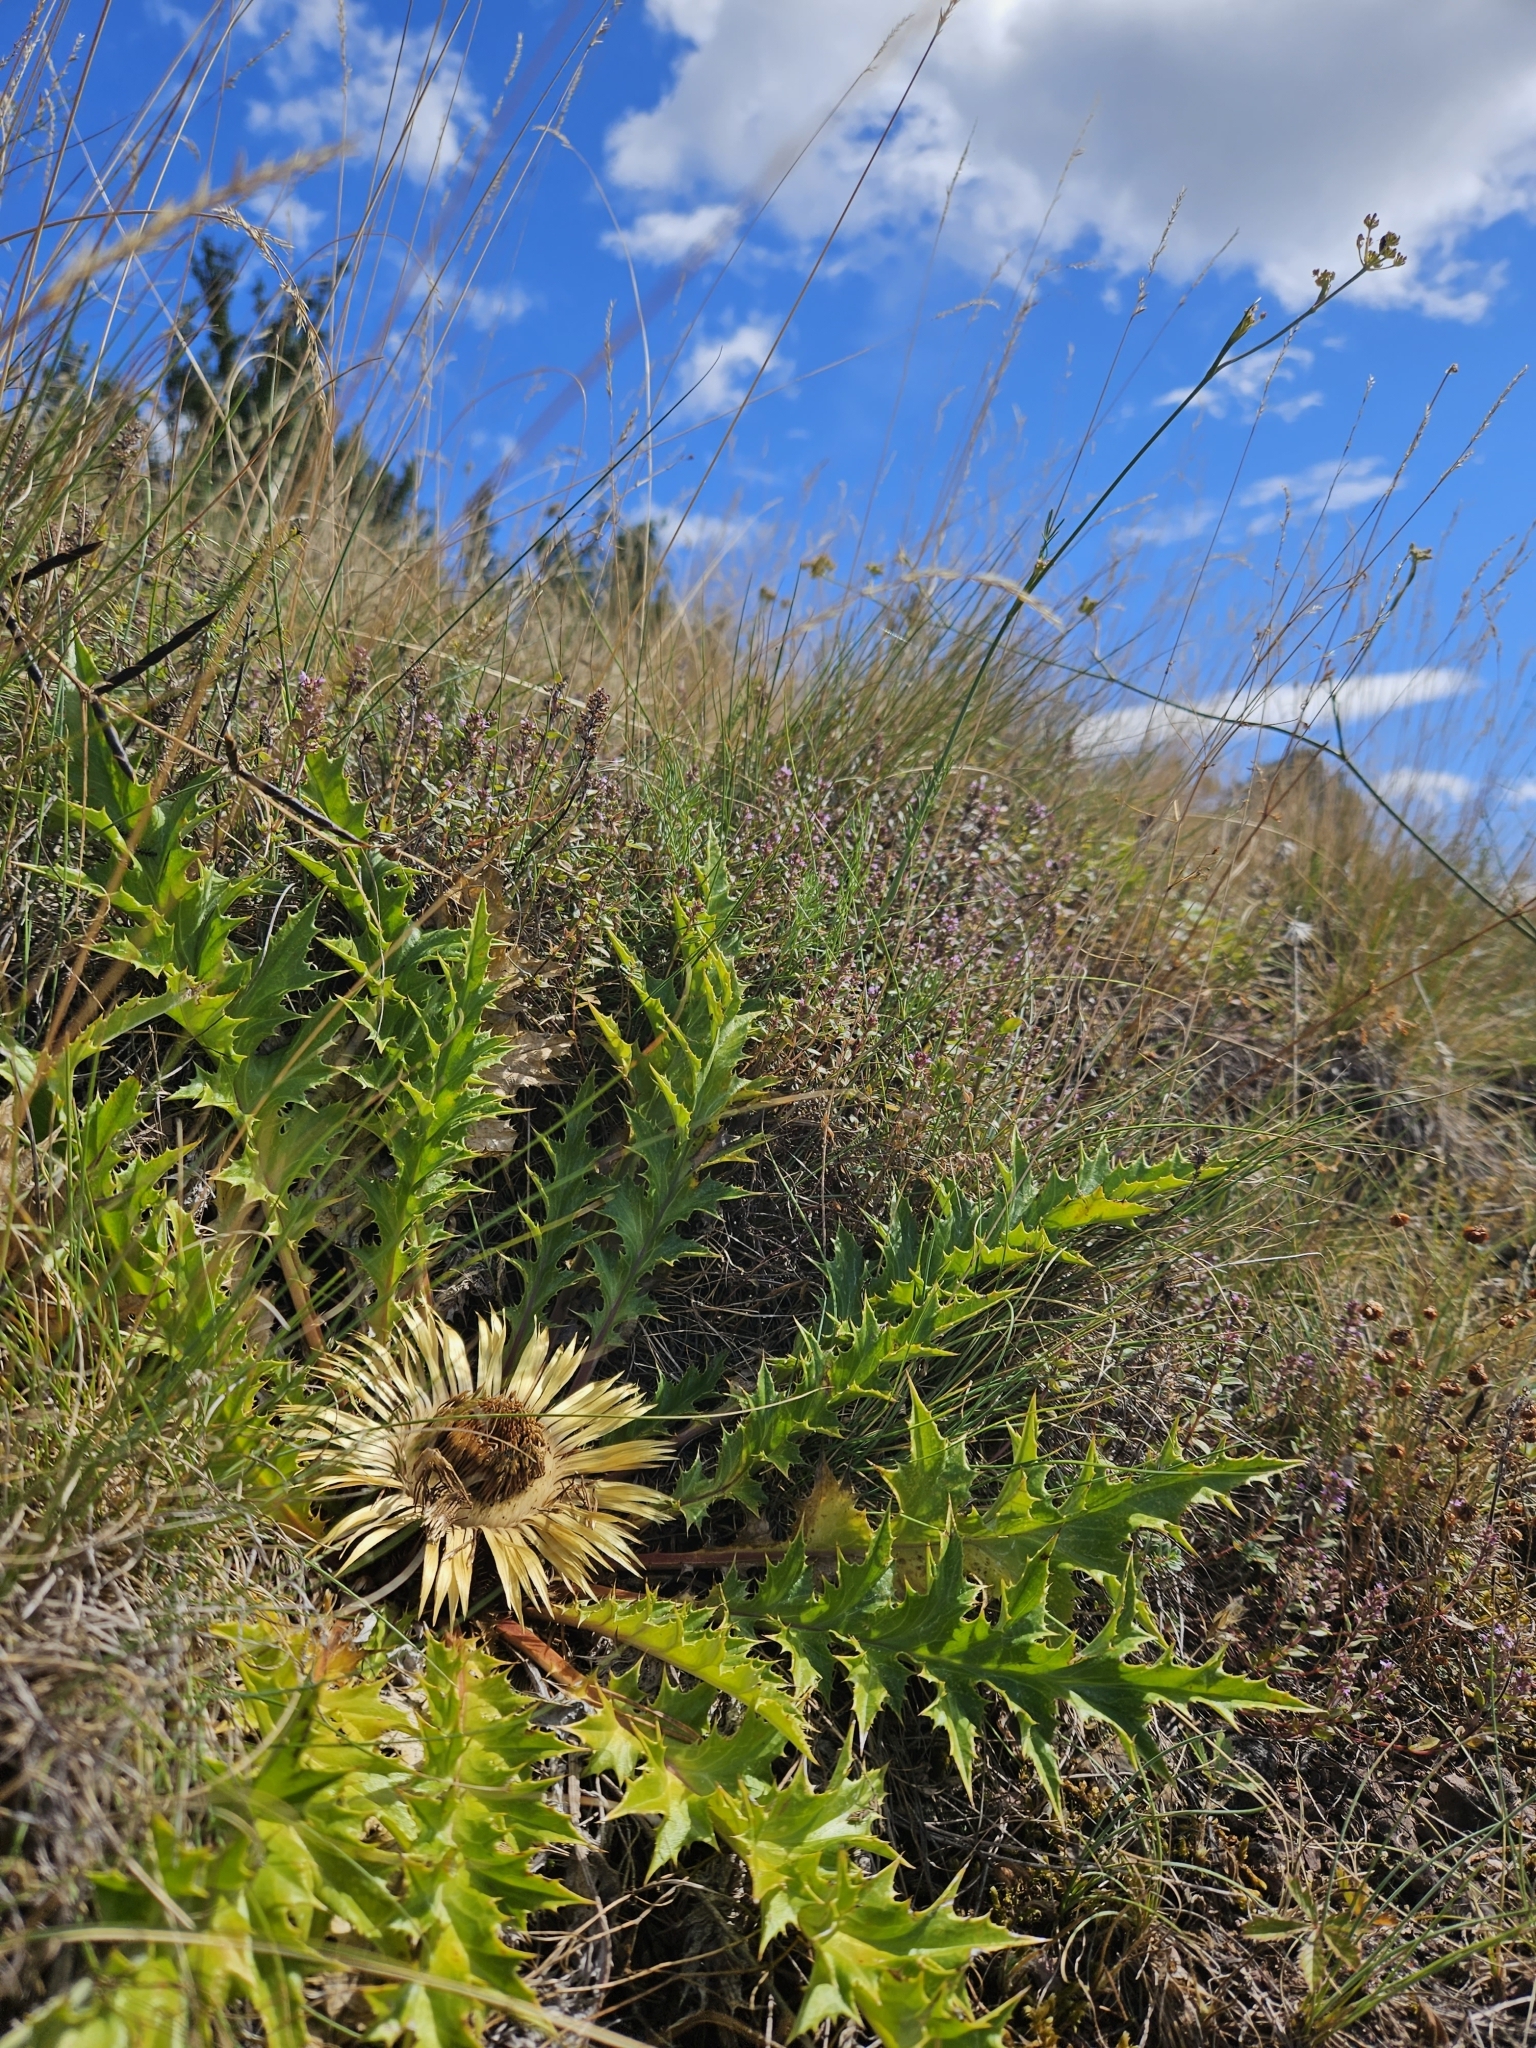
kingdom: Plantae
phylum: Tracheophyta
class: Magnoliopsida
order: Asterales
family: Asteraceae
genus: Carlina
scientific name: Carlina acanthifolia
